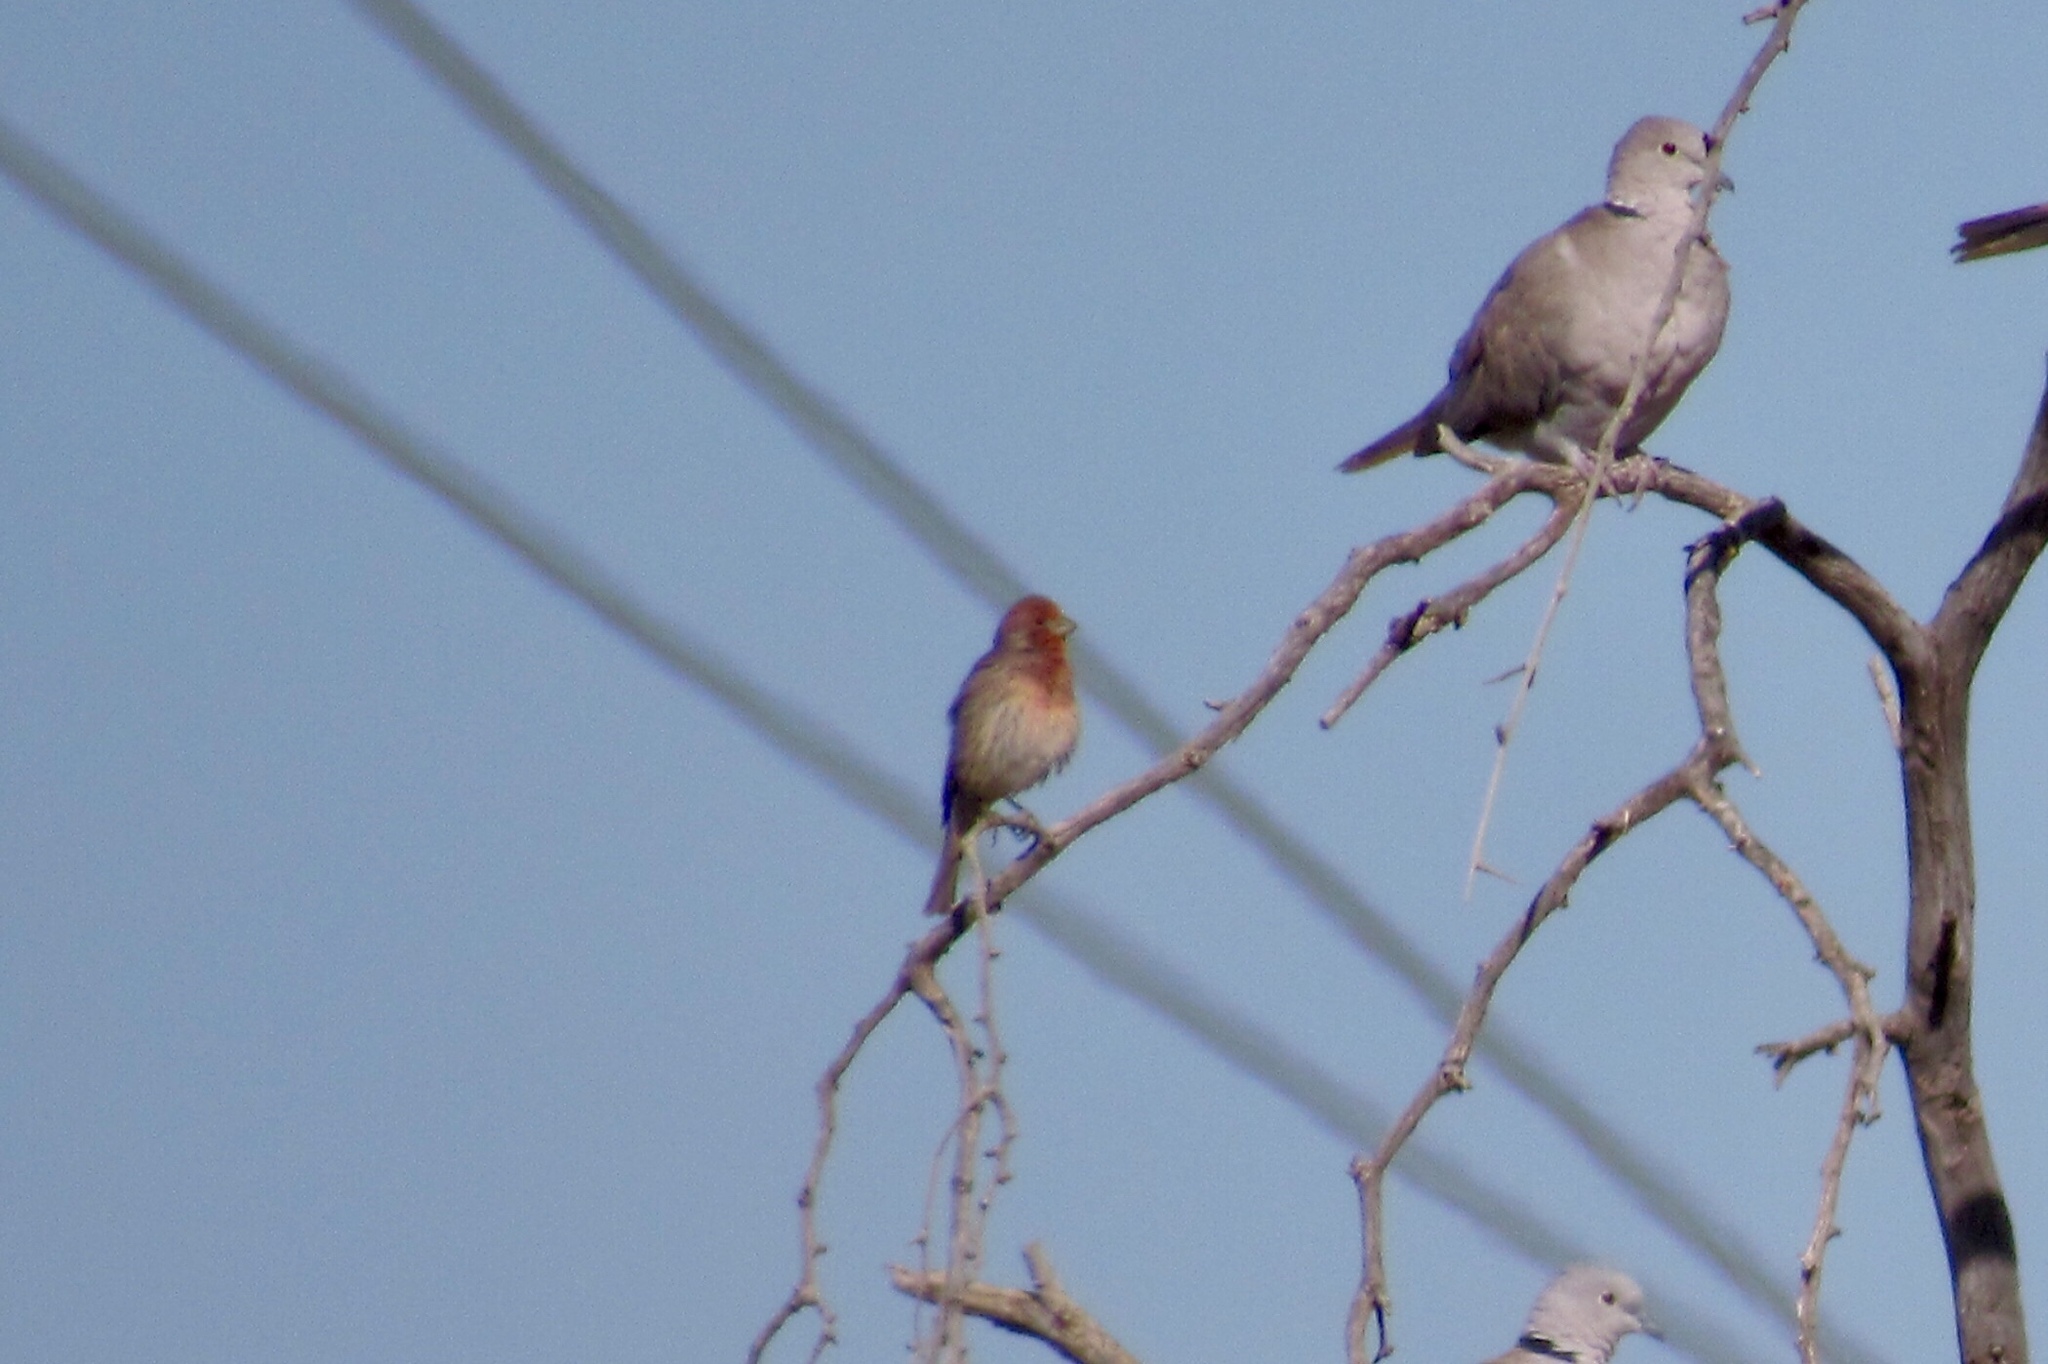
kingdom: Animalia
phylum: Chordata
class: Aves
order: Passeriformes
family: Fringillidae
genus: Haemorhous
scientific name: Haemorhous mexicanus
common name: House finch
